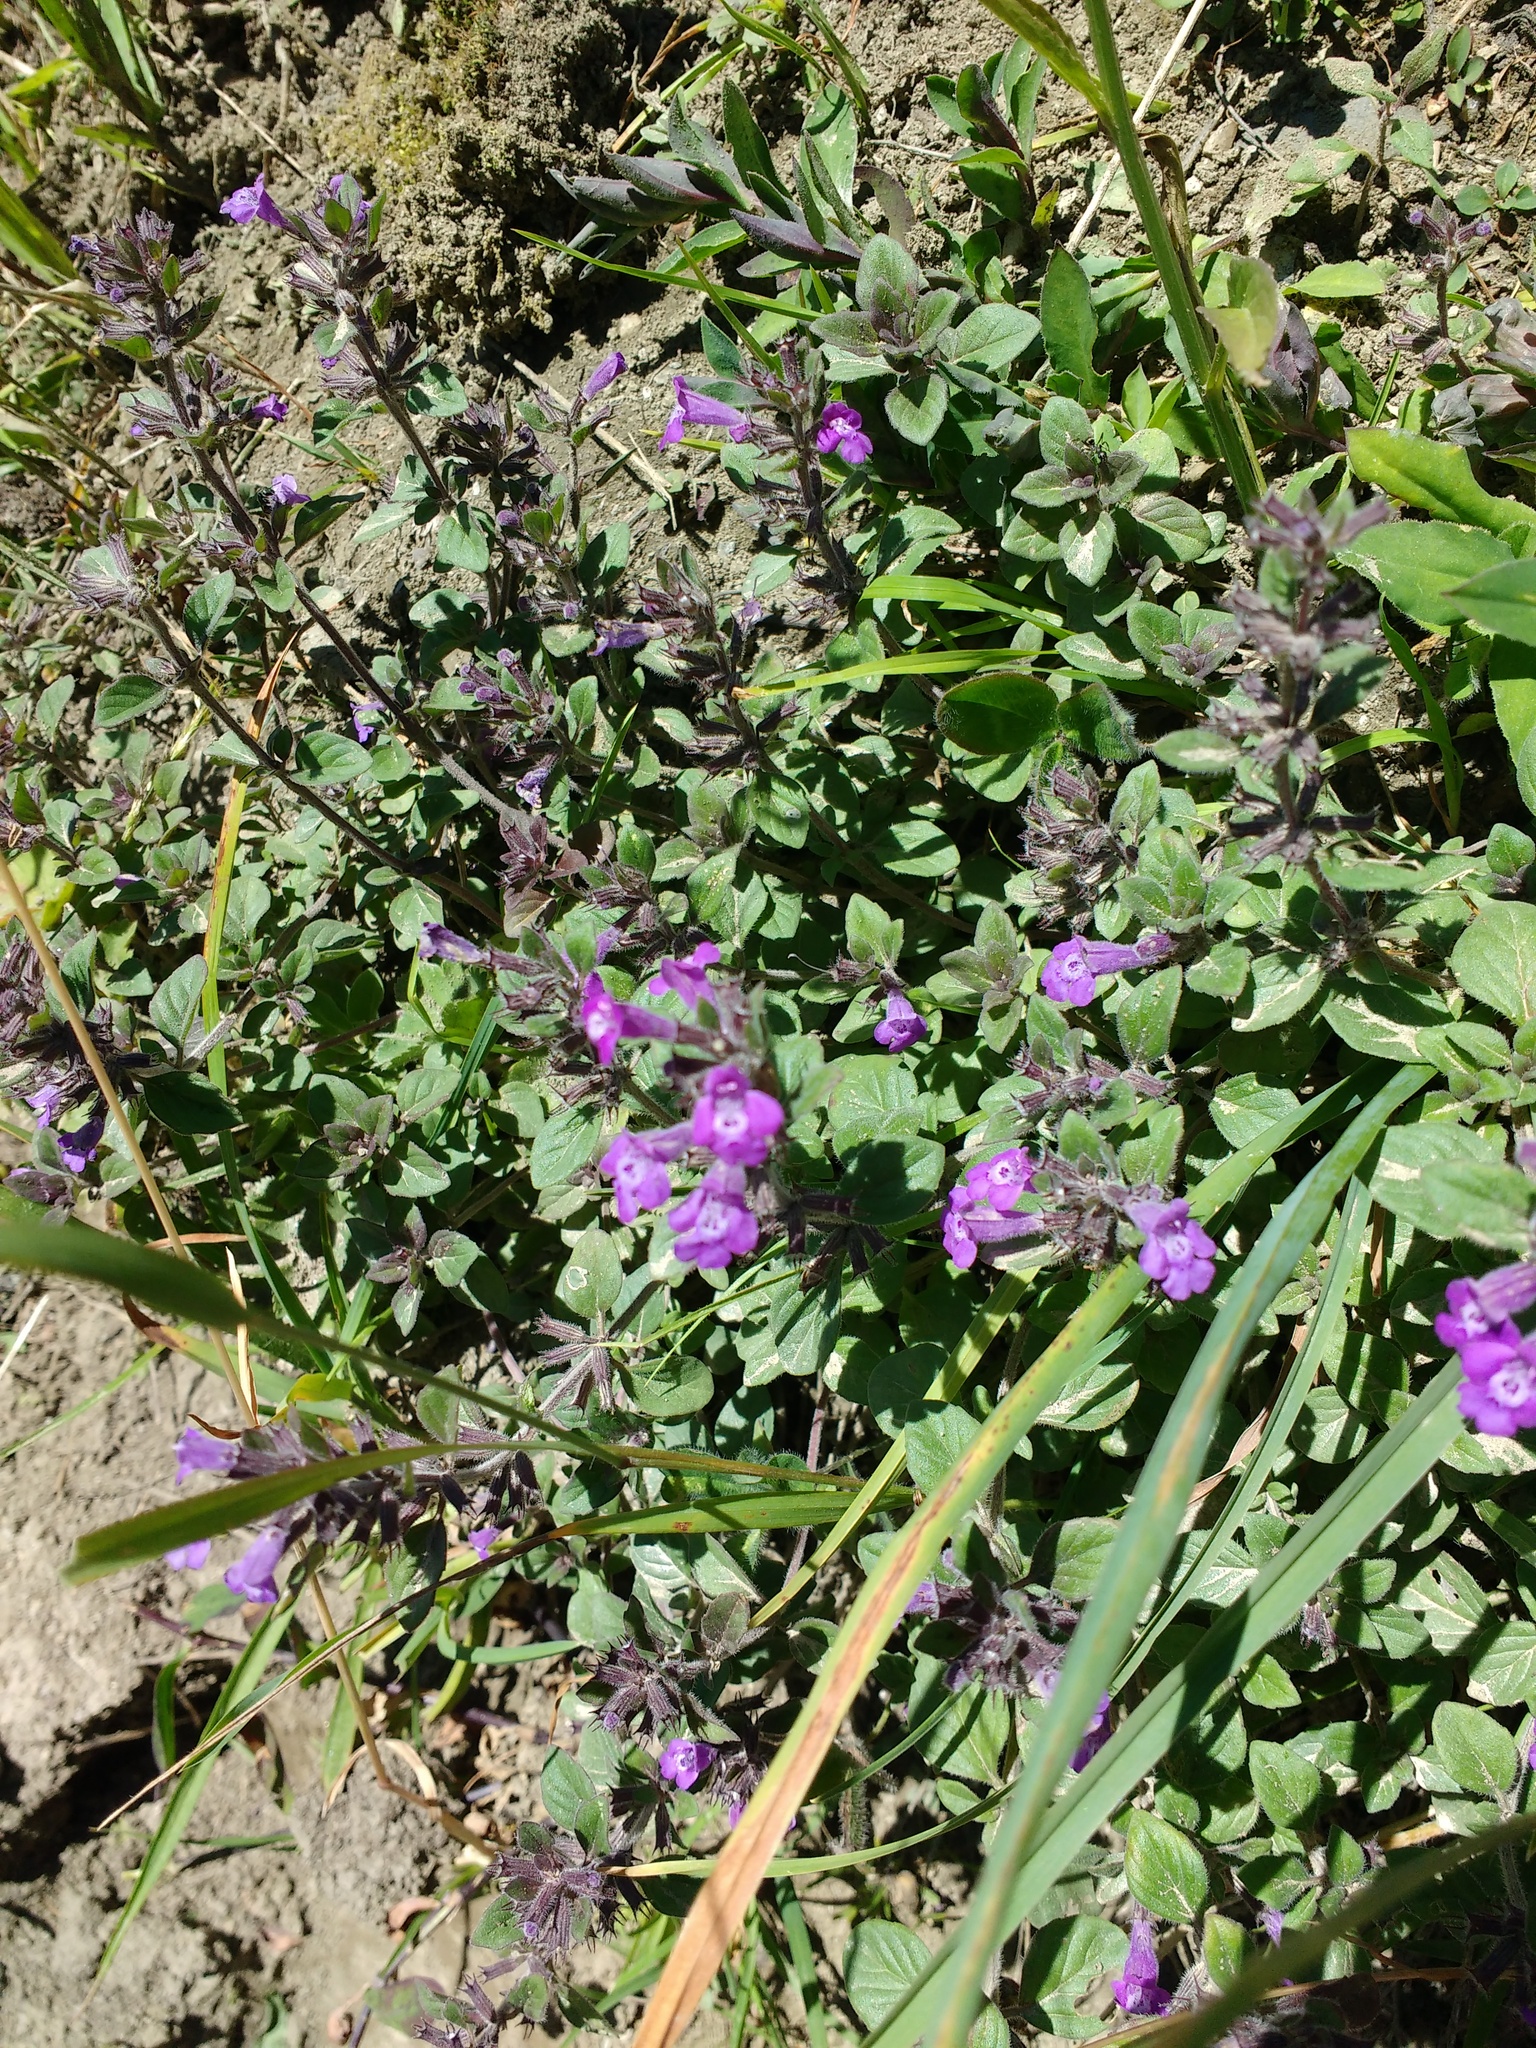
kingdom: Plantae
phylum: Tracheophyta
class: Magnoliopsida
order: Lamiales
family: Lamiaceae
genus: Clinopodium
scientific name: Clinopodium alpinum
